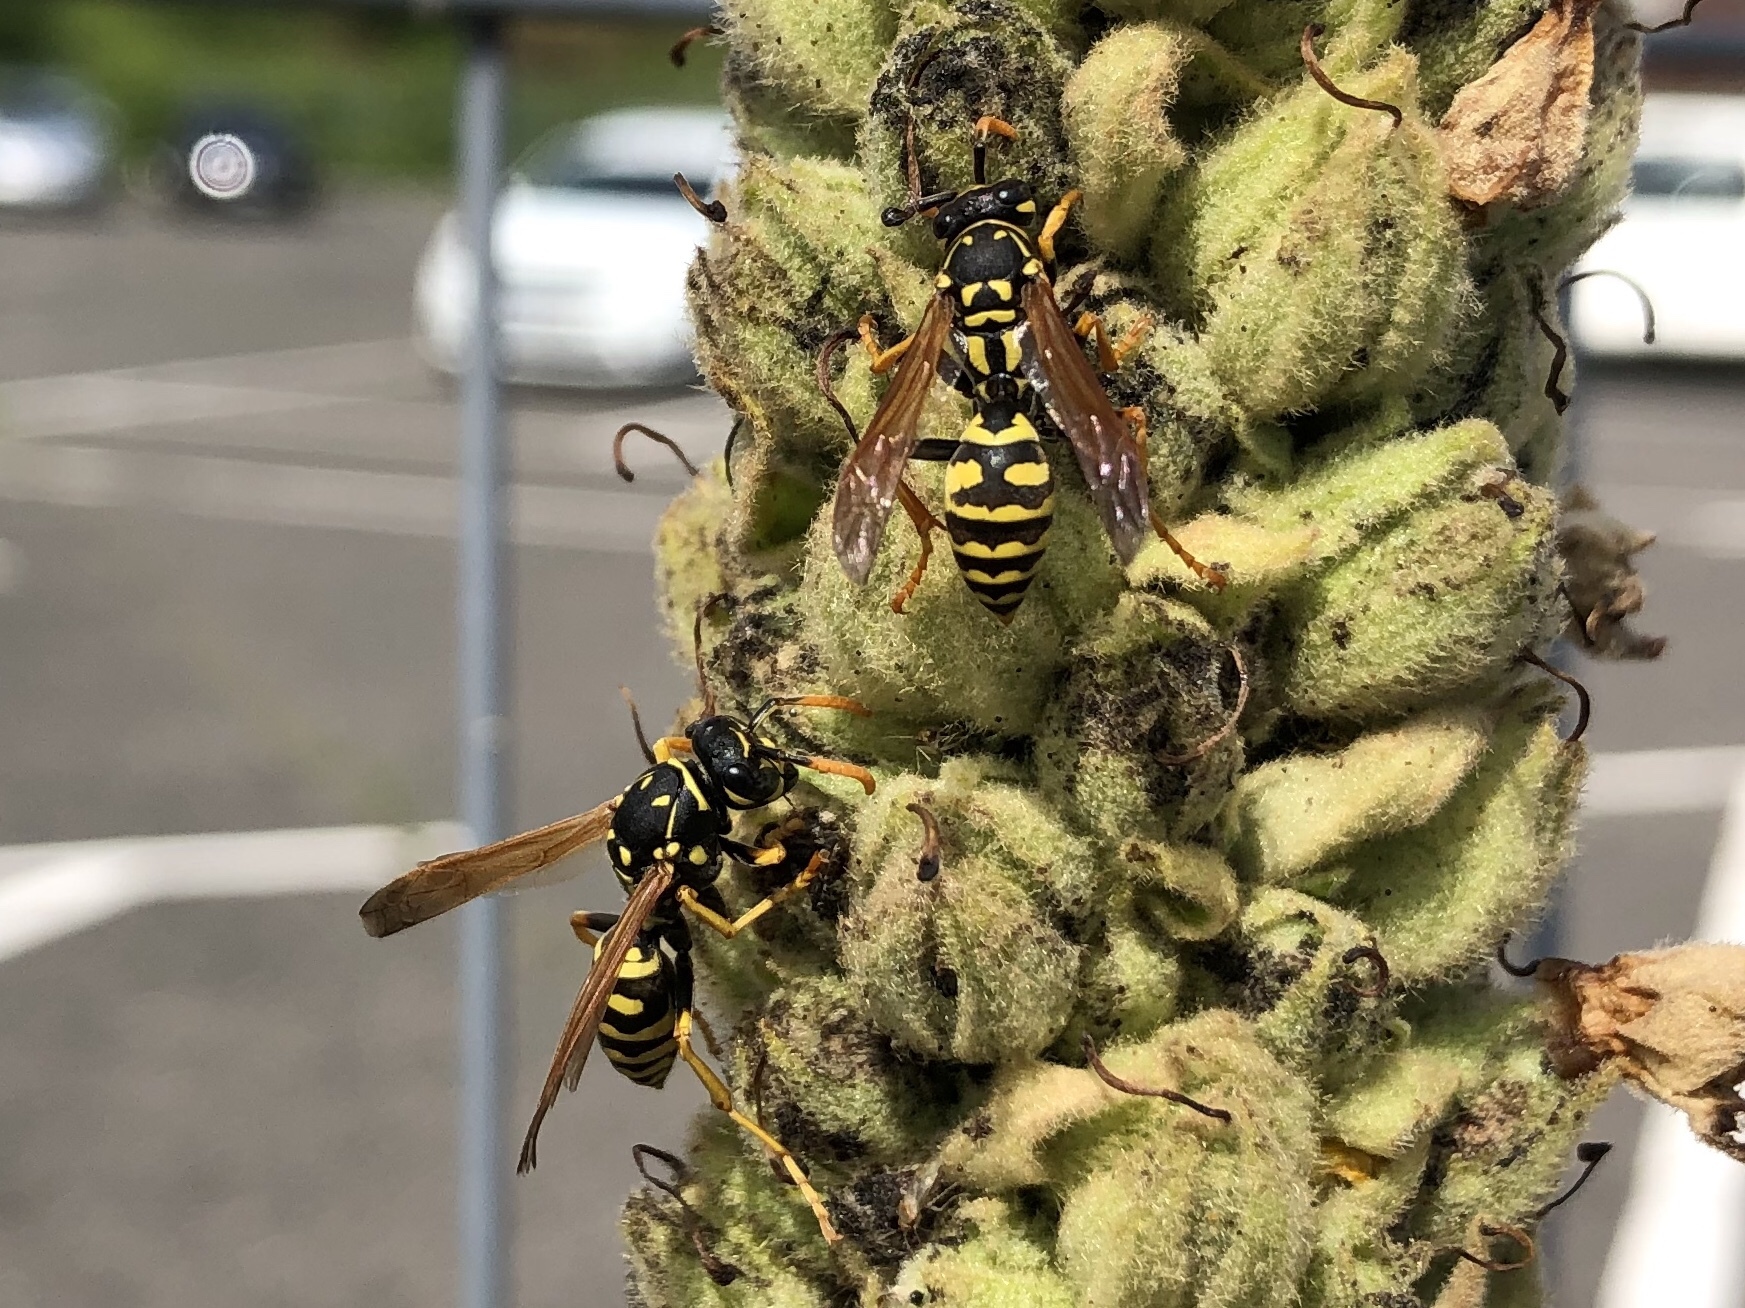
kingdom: Animalia
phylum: Arthropoda
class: Insecta
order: Hymenoptera
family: Eumenidae
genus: Polistes
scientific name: Polistes dominula
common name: Paper wasp
